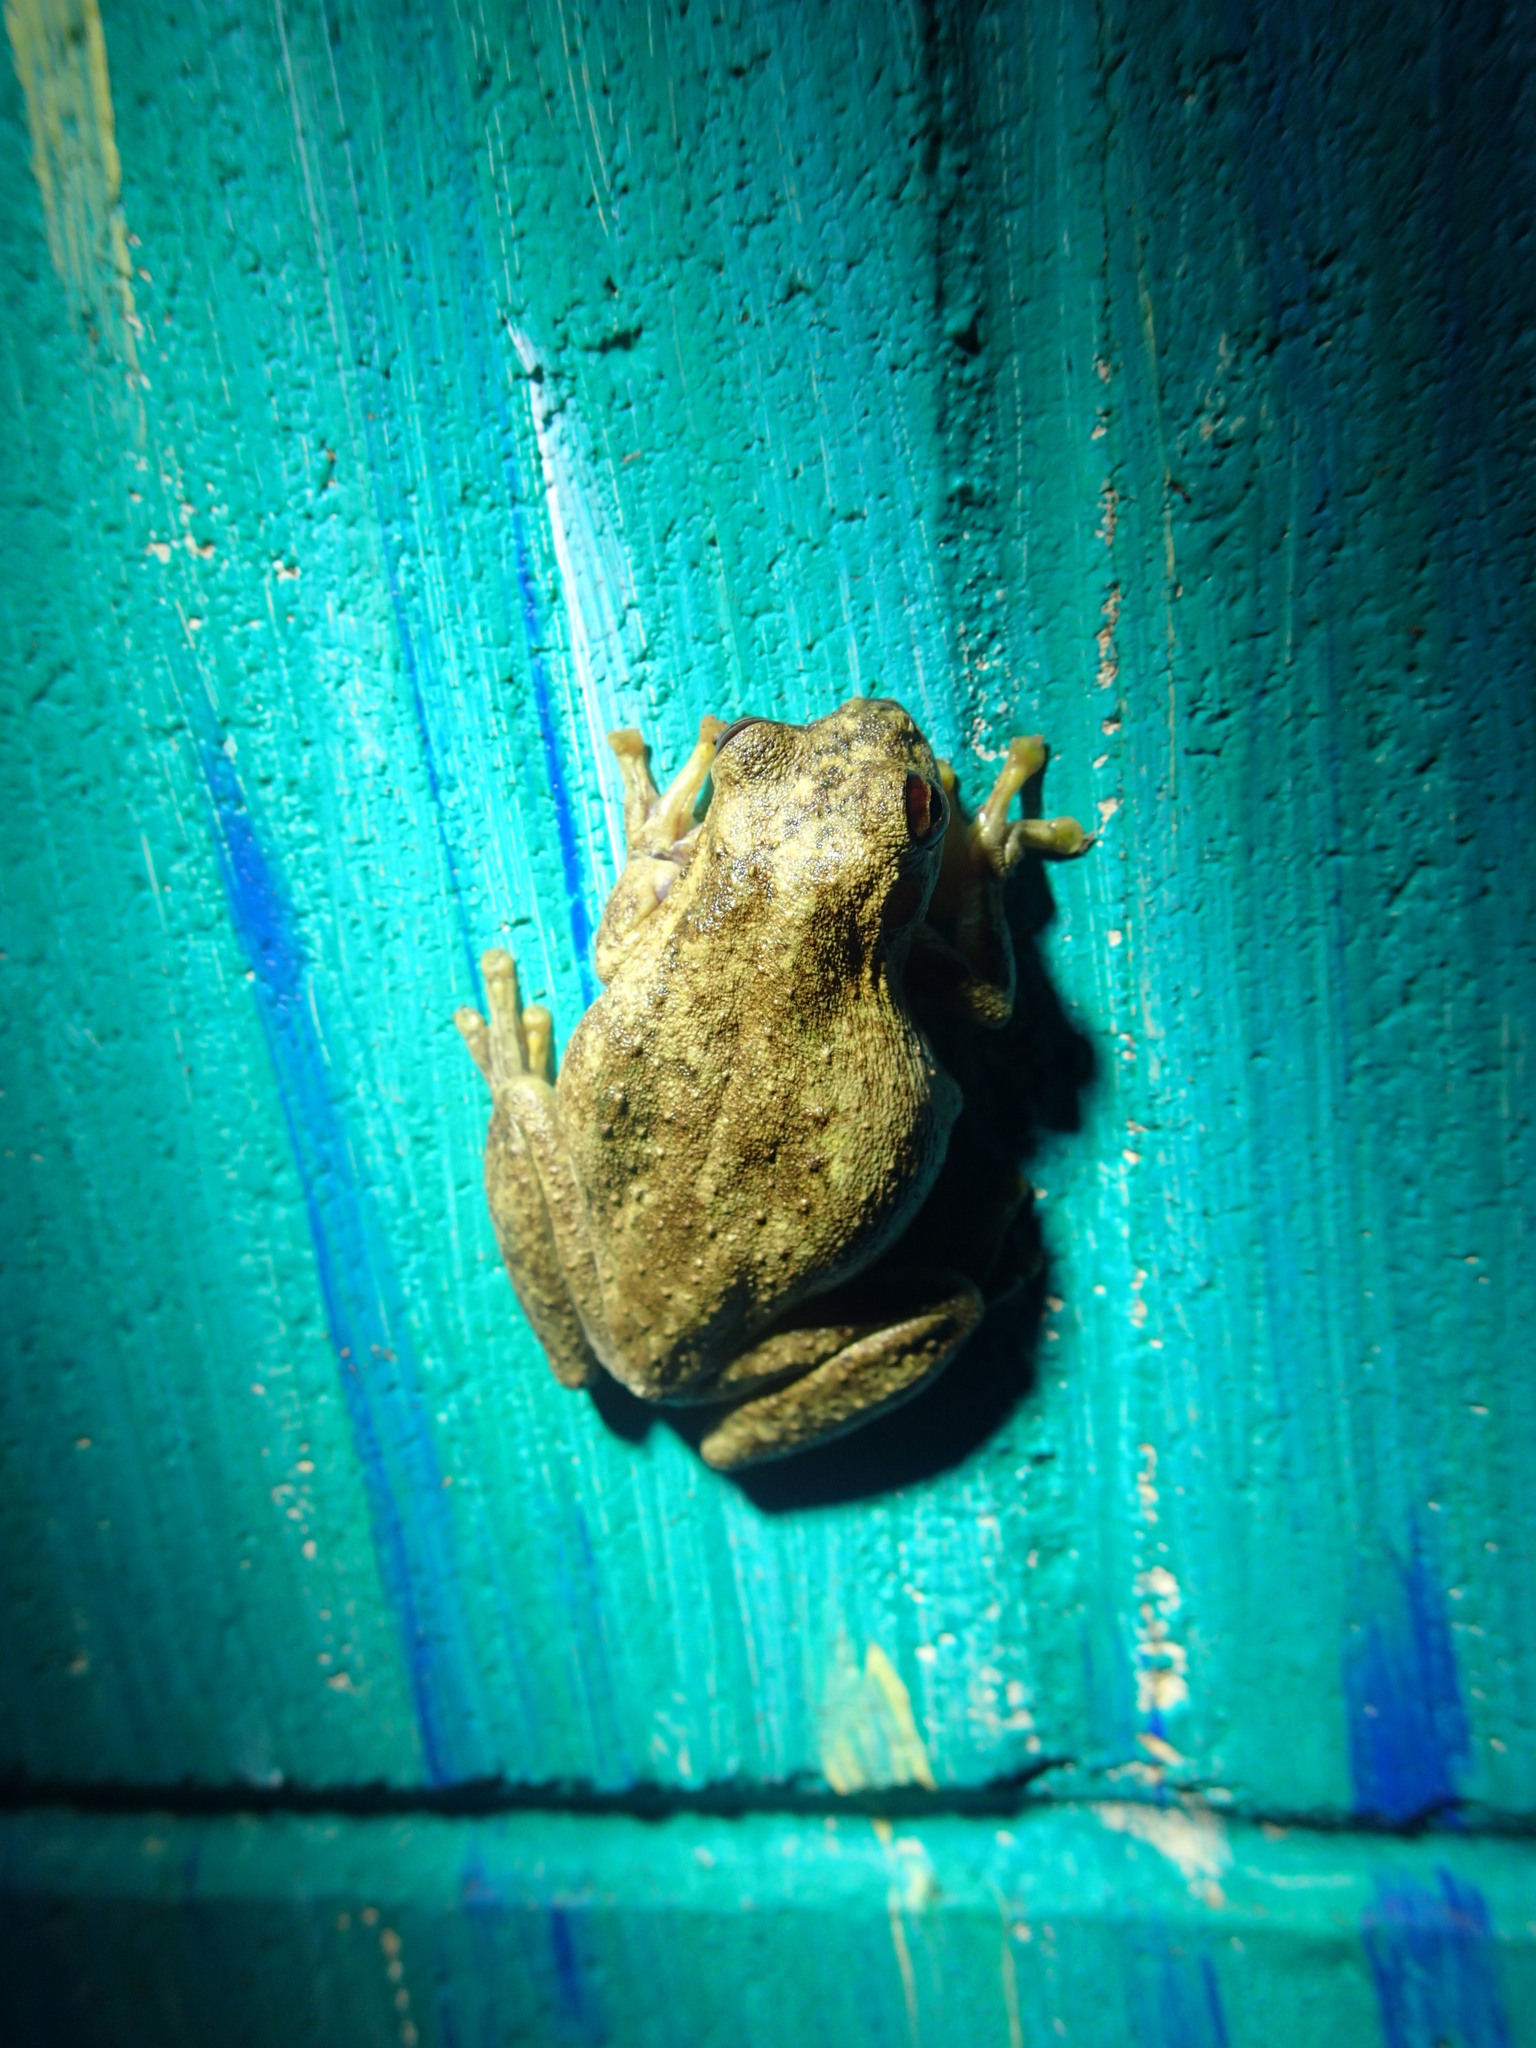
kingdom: Animalia
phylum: Chordata
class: Amphibia
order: Anura
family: Pelodryadidae
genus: Litoria
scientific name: Litoria
